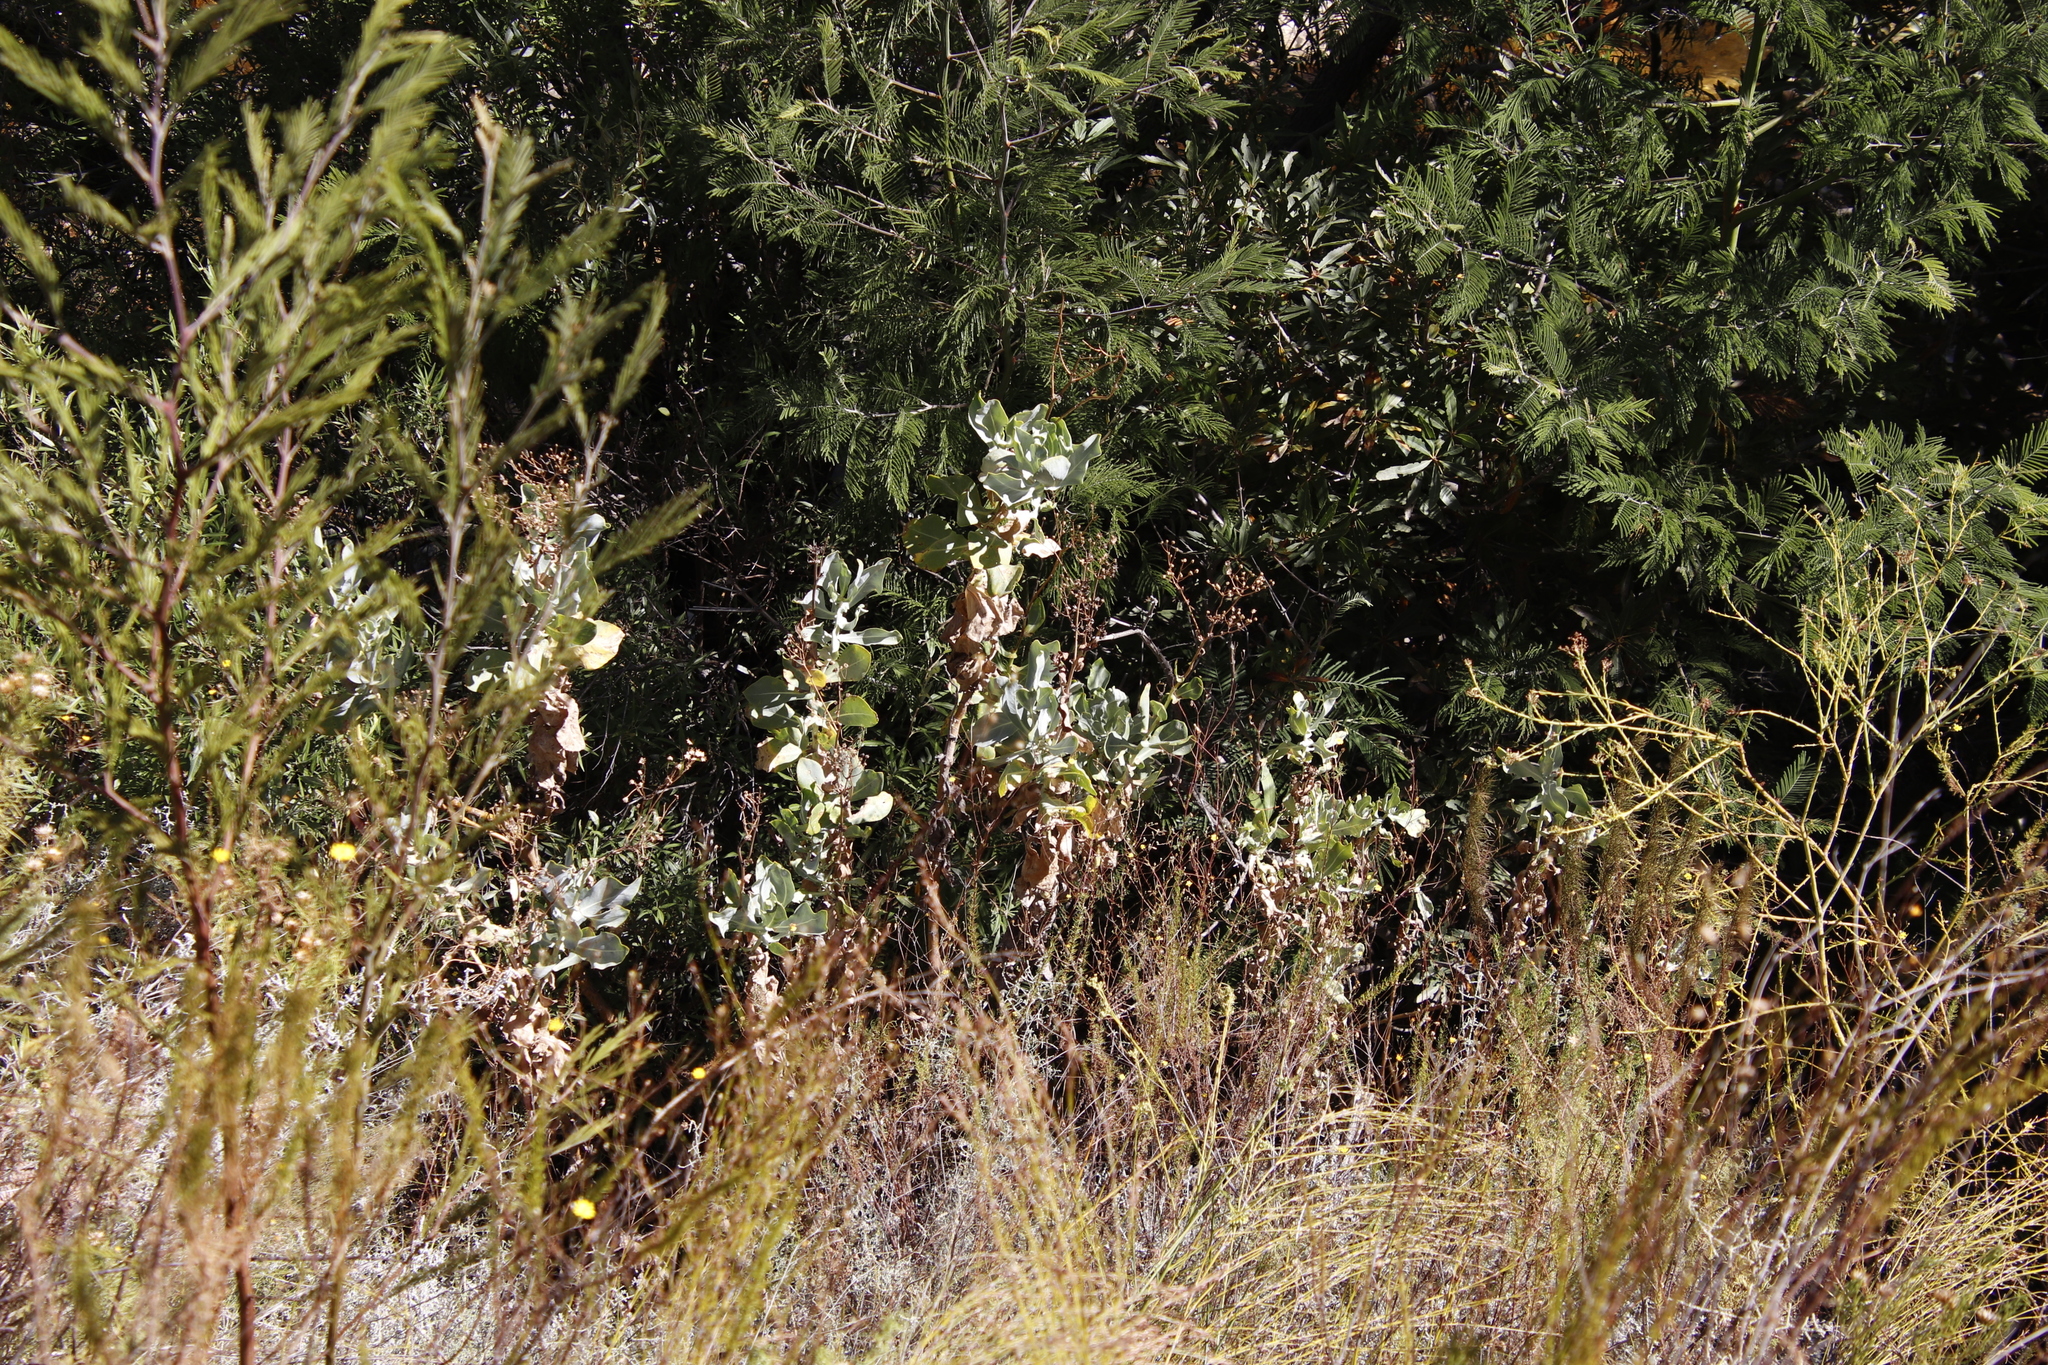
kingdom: Plantae
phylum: Tracheophyta
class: Magnoliopsida
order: Asterales
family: Asteraceae
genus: Othonna
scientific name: Othonna parviflora
